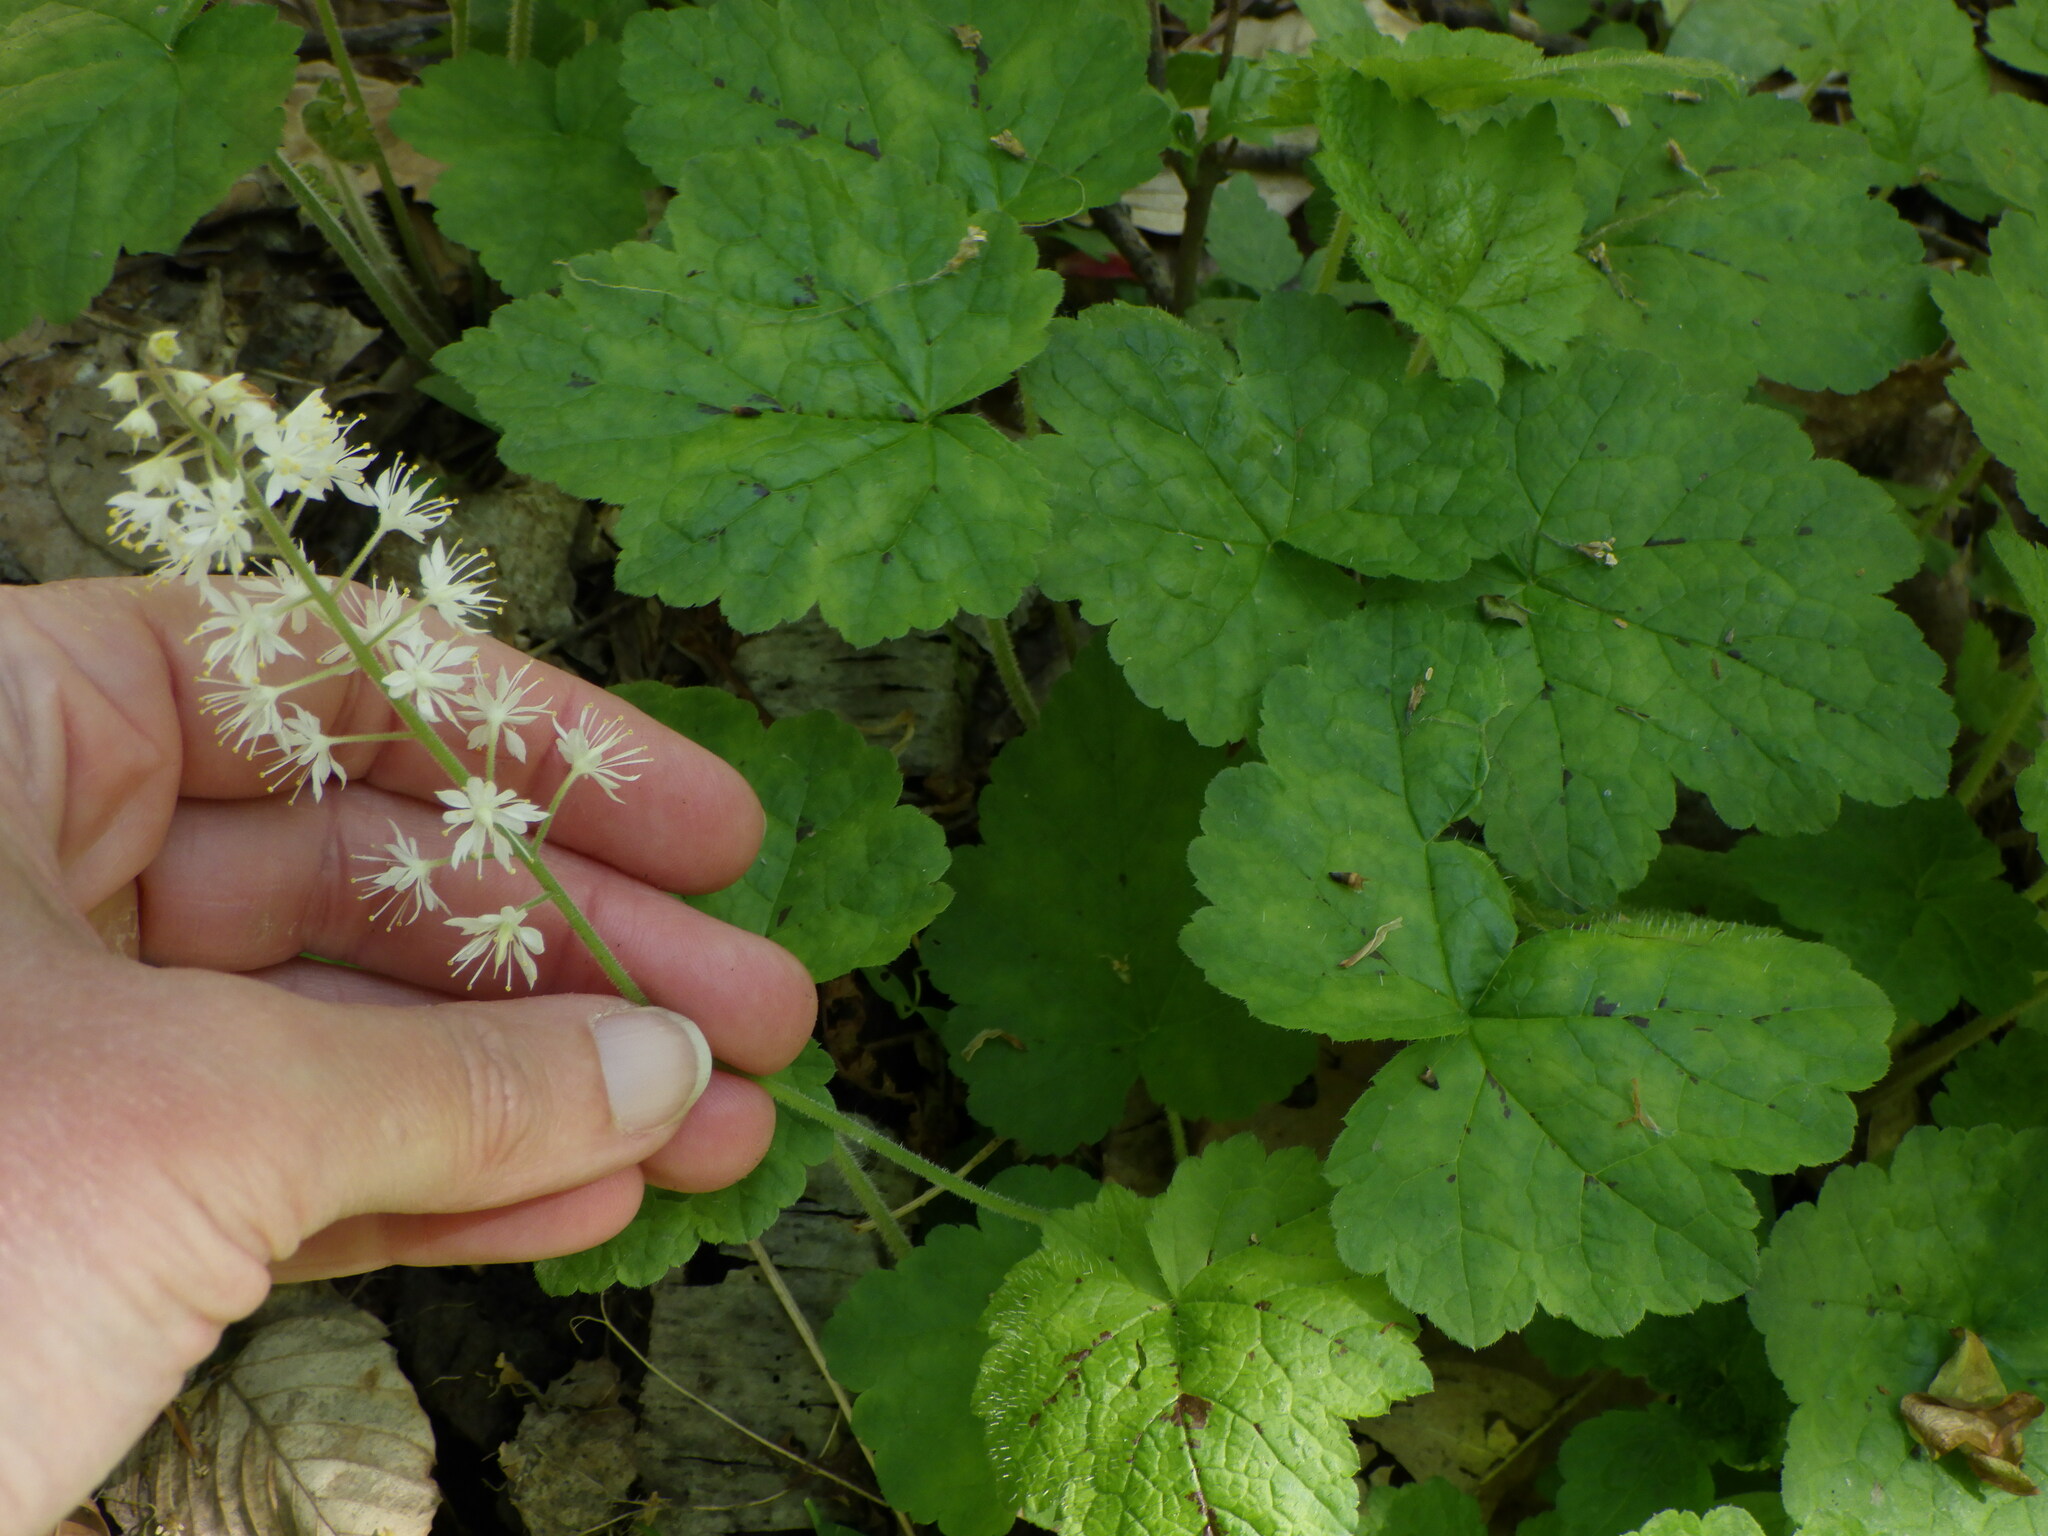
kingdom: Plantae
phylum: Tracheophyta
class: Magnoliopsida
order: Saxifragales
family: Saxifragaceae
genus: Tiarella
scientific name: Tiarella stolonifera
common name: Stoloniferous foamflower
